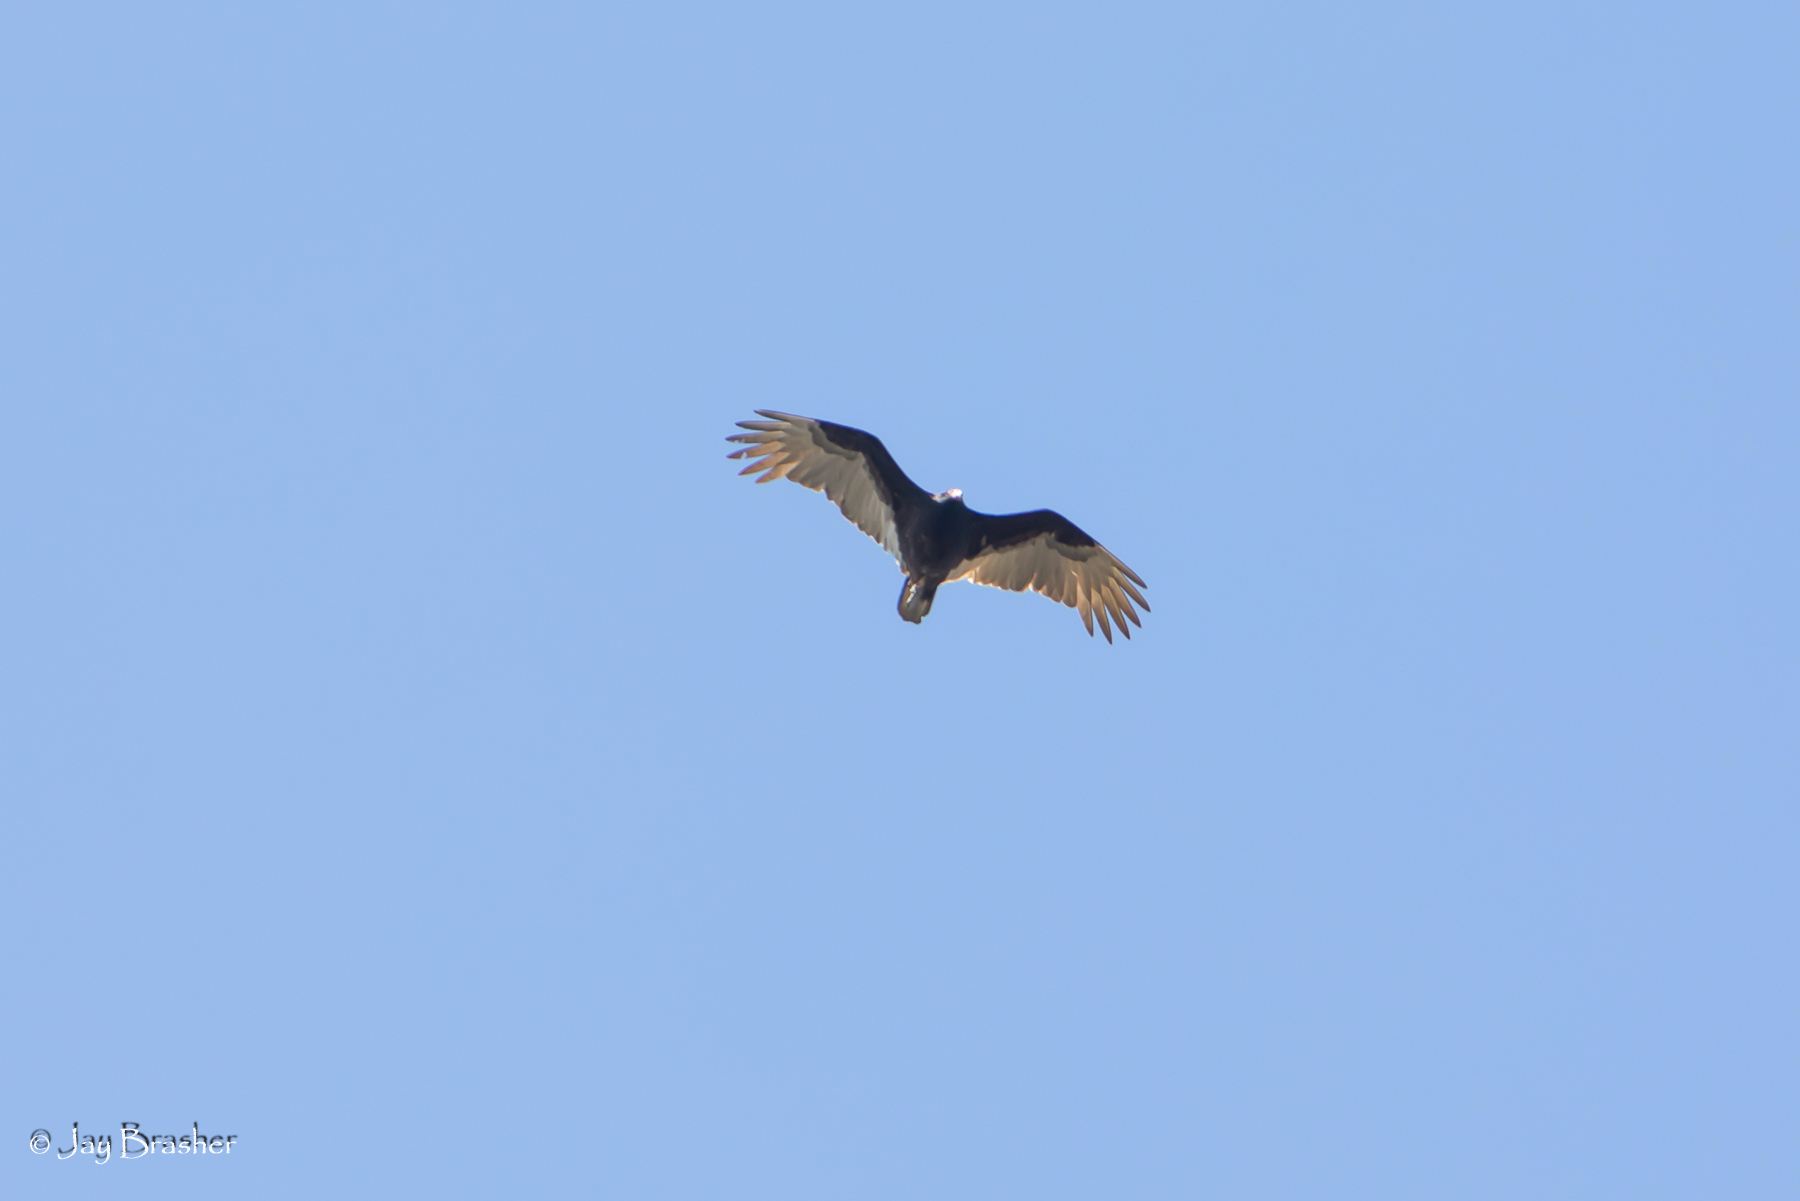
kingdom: Animalia
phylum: Chordata
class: Aves
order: Accipitriformes
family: Cathartidae
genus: Cathartes
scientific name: Cathartes aura
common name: Turkey vulture
